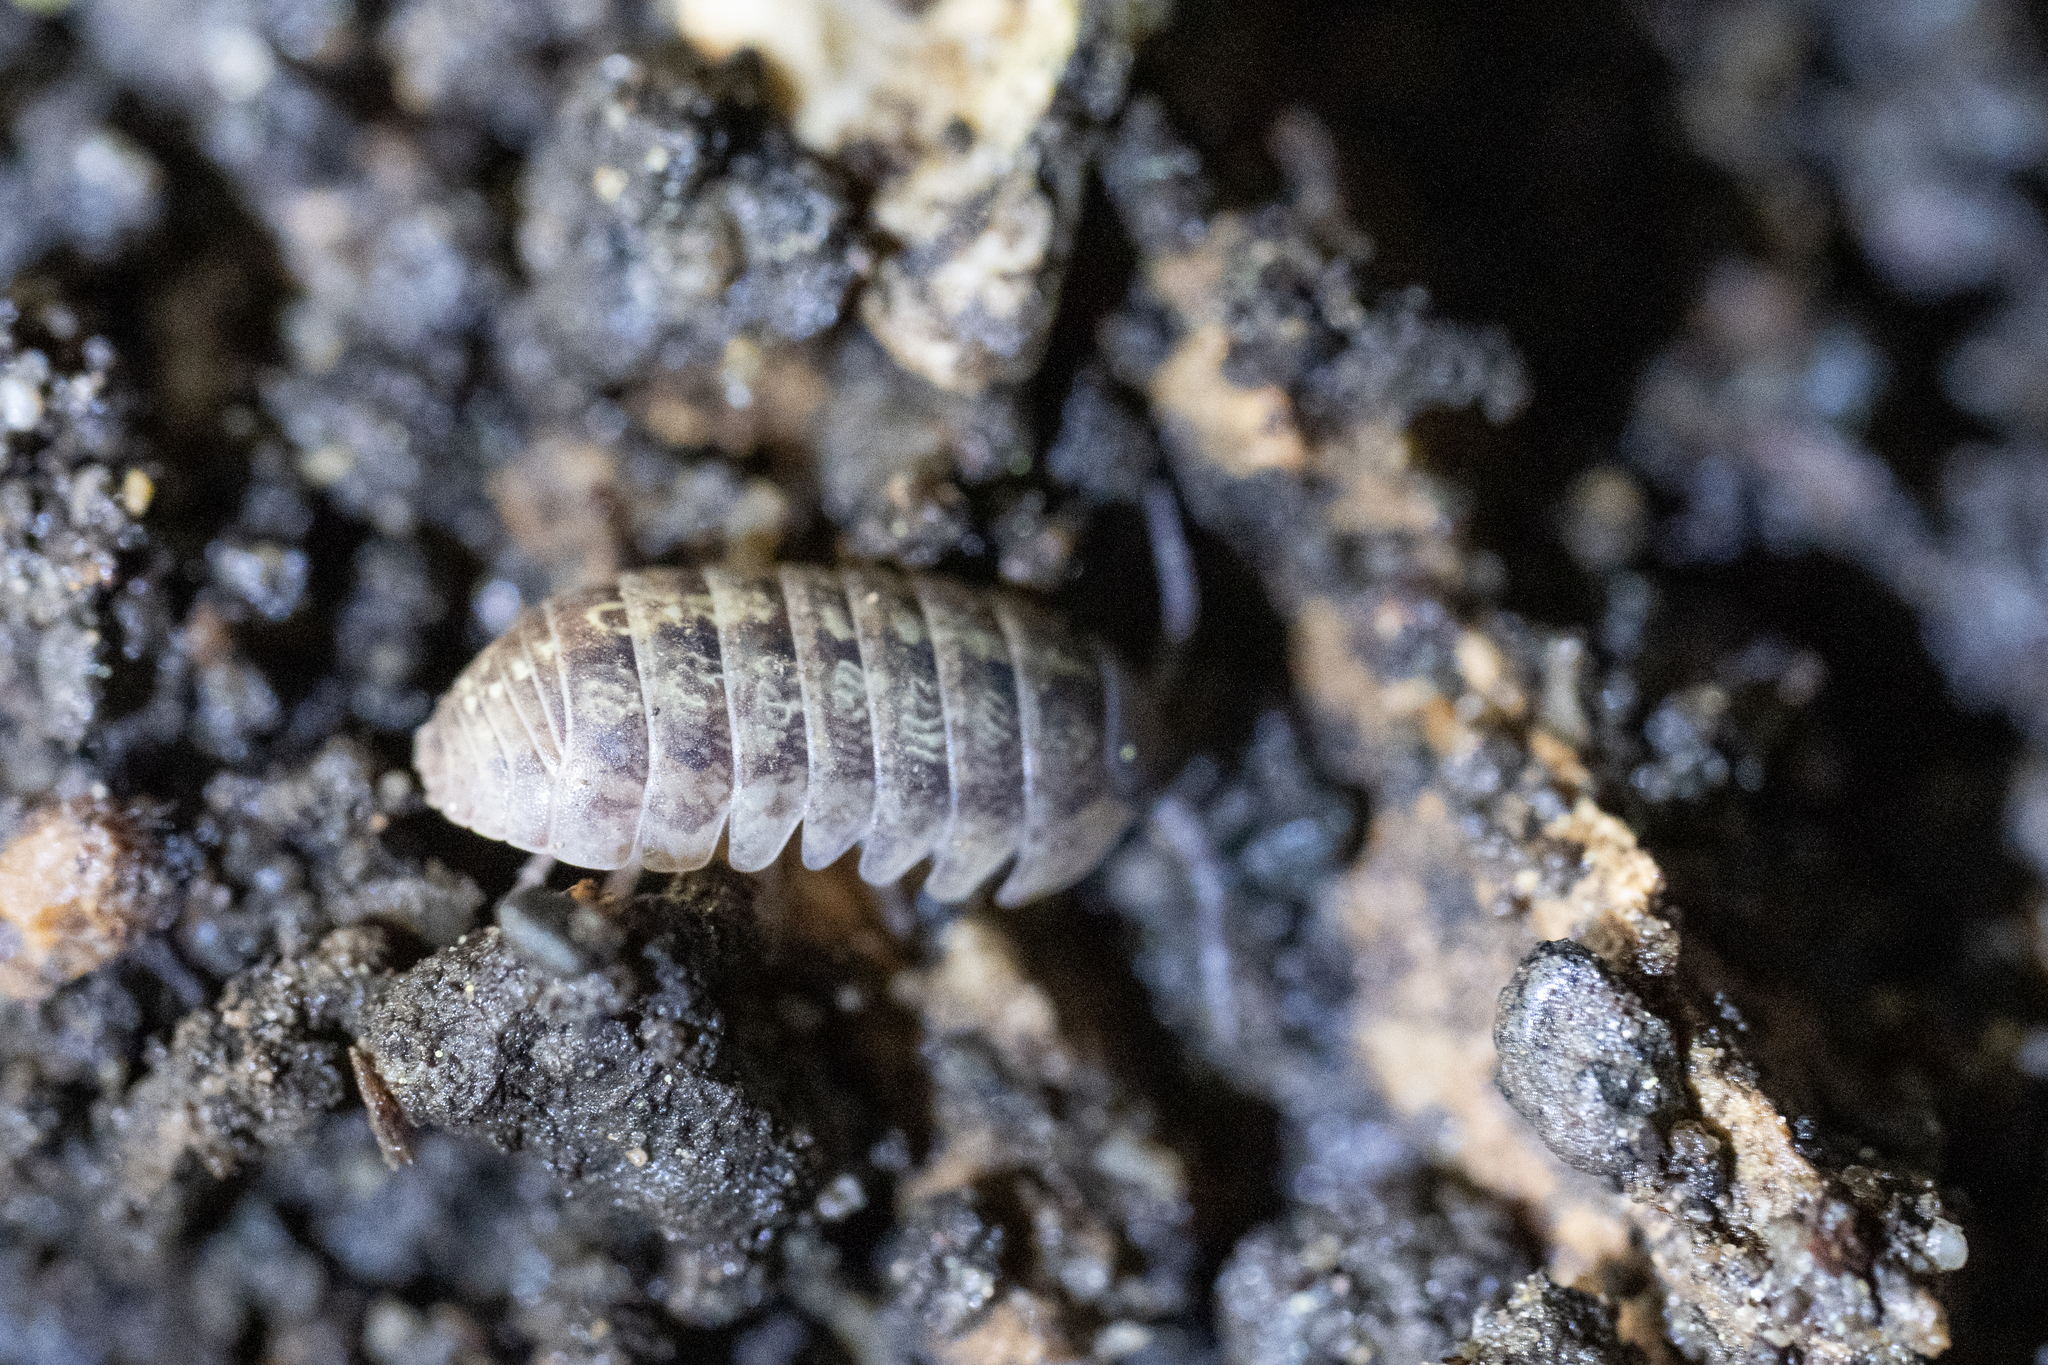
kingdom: Animalia
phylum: Arthropoda
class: Malacostraca
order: Isopoda
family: Armadillidiidae
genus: Armadillidium
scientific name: Armadillidium vulgare
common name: Common pill woodlouse
